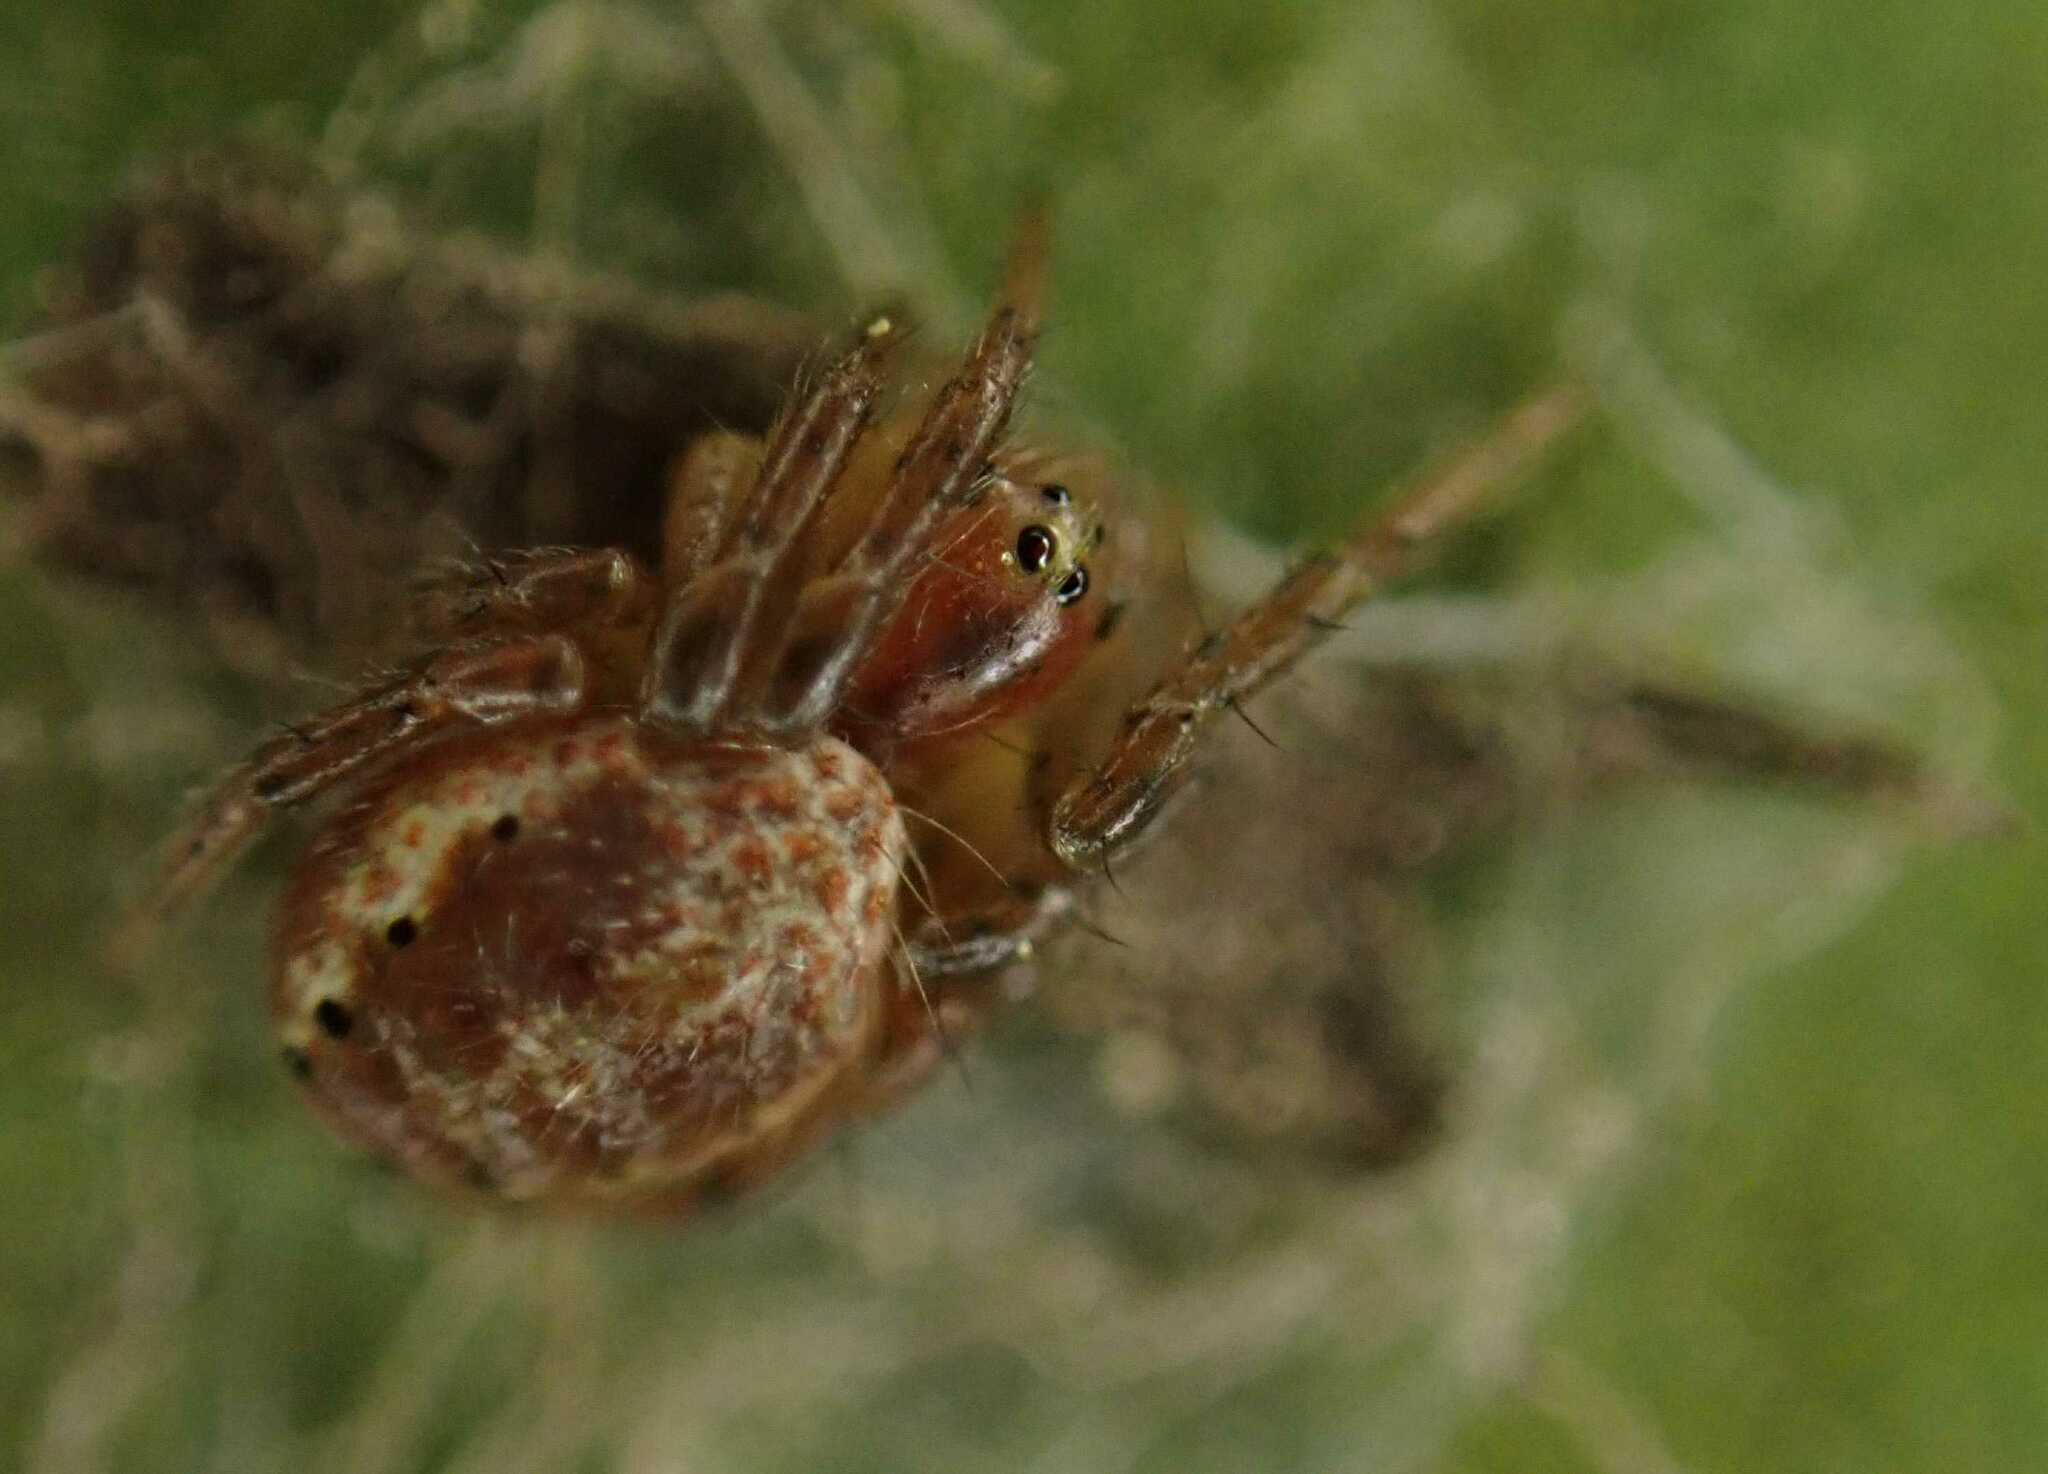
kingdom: Animalia
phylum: Arthropoda
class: Arachnida
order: Araneae
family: Araneidae
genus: Araniella
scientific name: Araniella
